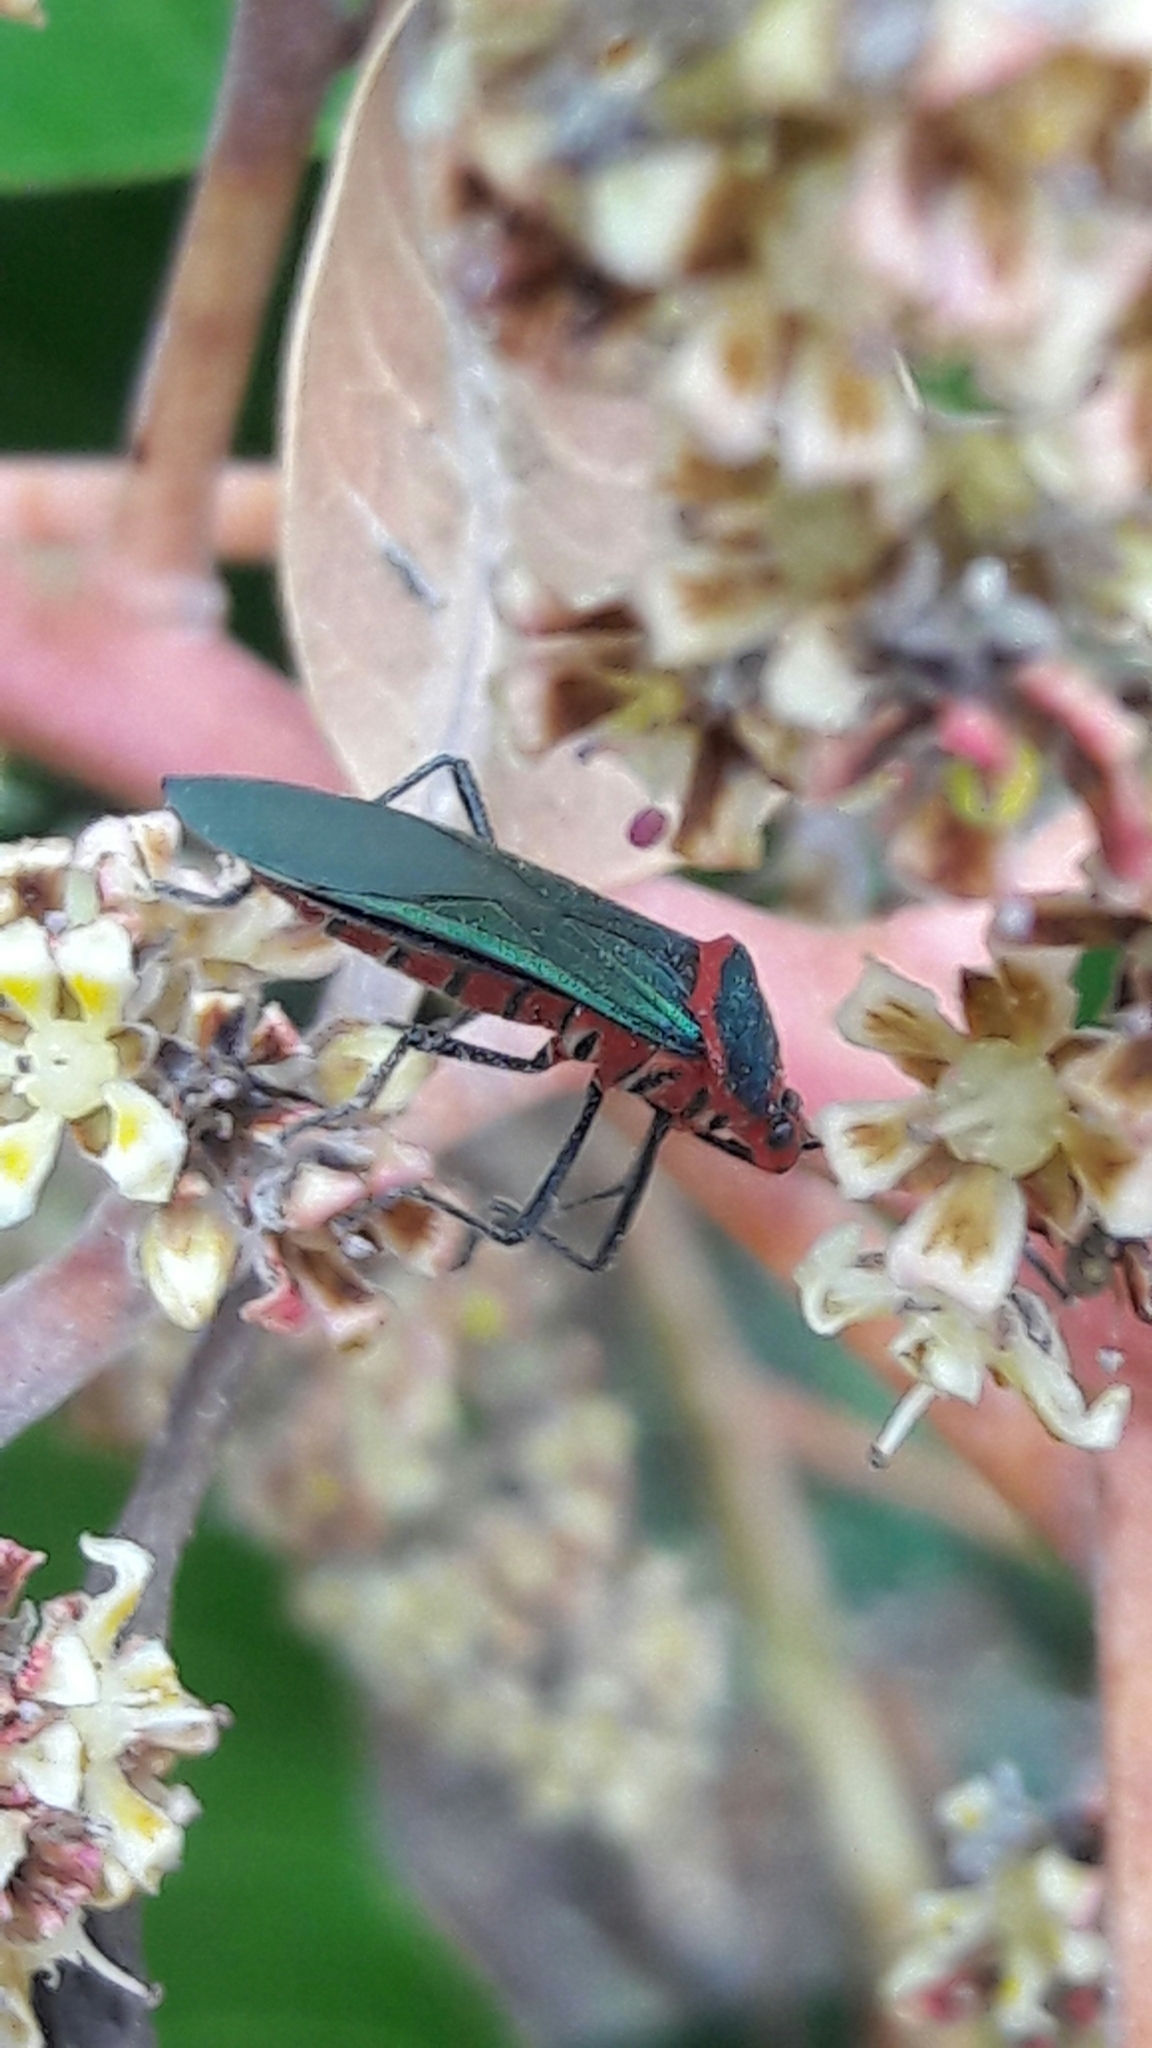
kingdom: Animalia
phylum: Arthropoda
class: Insecta
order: Hemiptera
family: Coreidae
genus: Sphictyrtus
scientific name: Sphictyrtus chrysis
